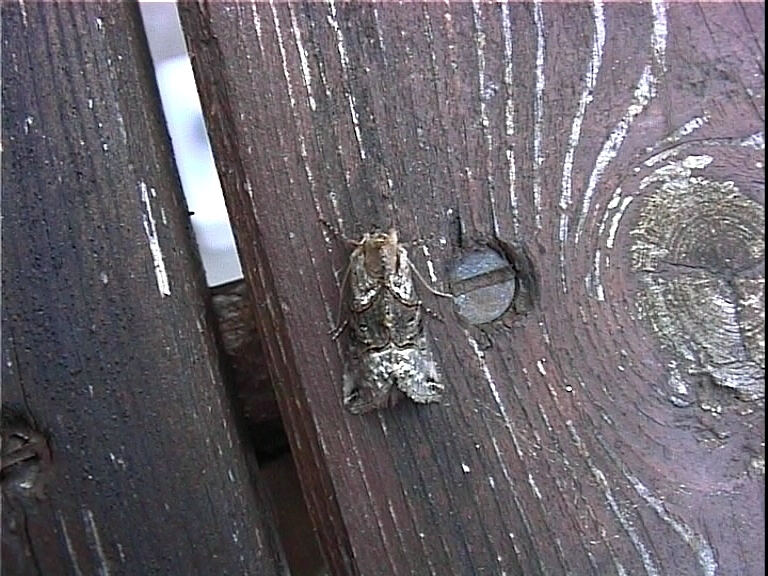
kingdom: Animalia
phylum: Arthropoda
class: Insecta
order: Lepidoptera
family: Noctuidae
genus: Abrostola
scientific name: Abrostola tripartita
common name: Spectacle
